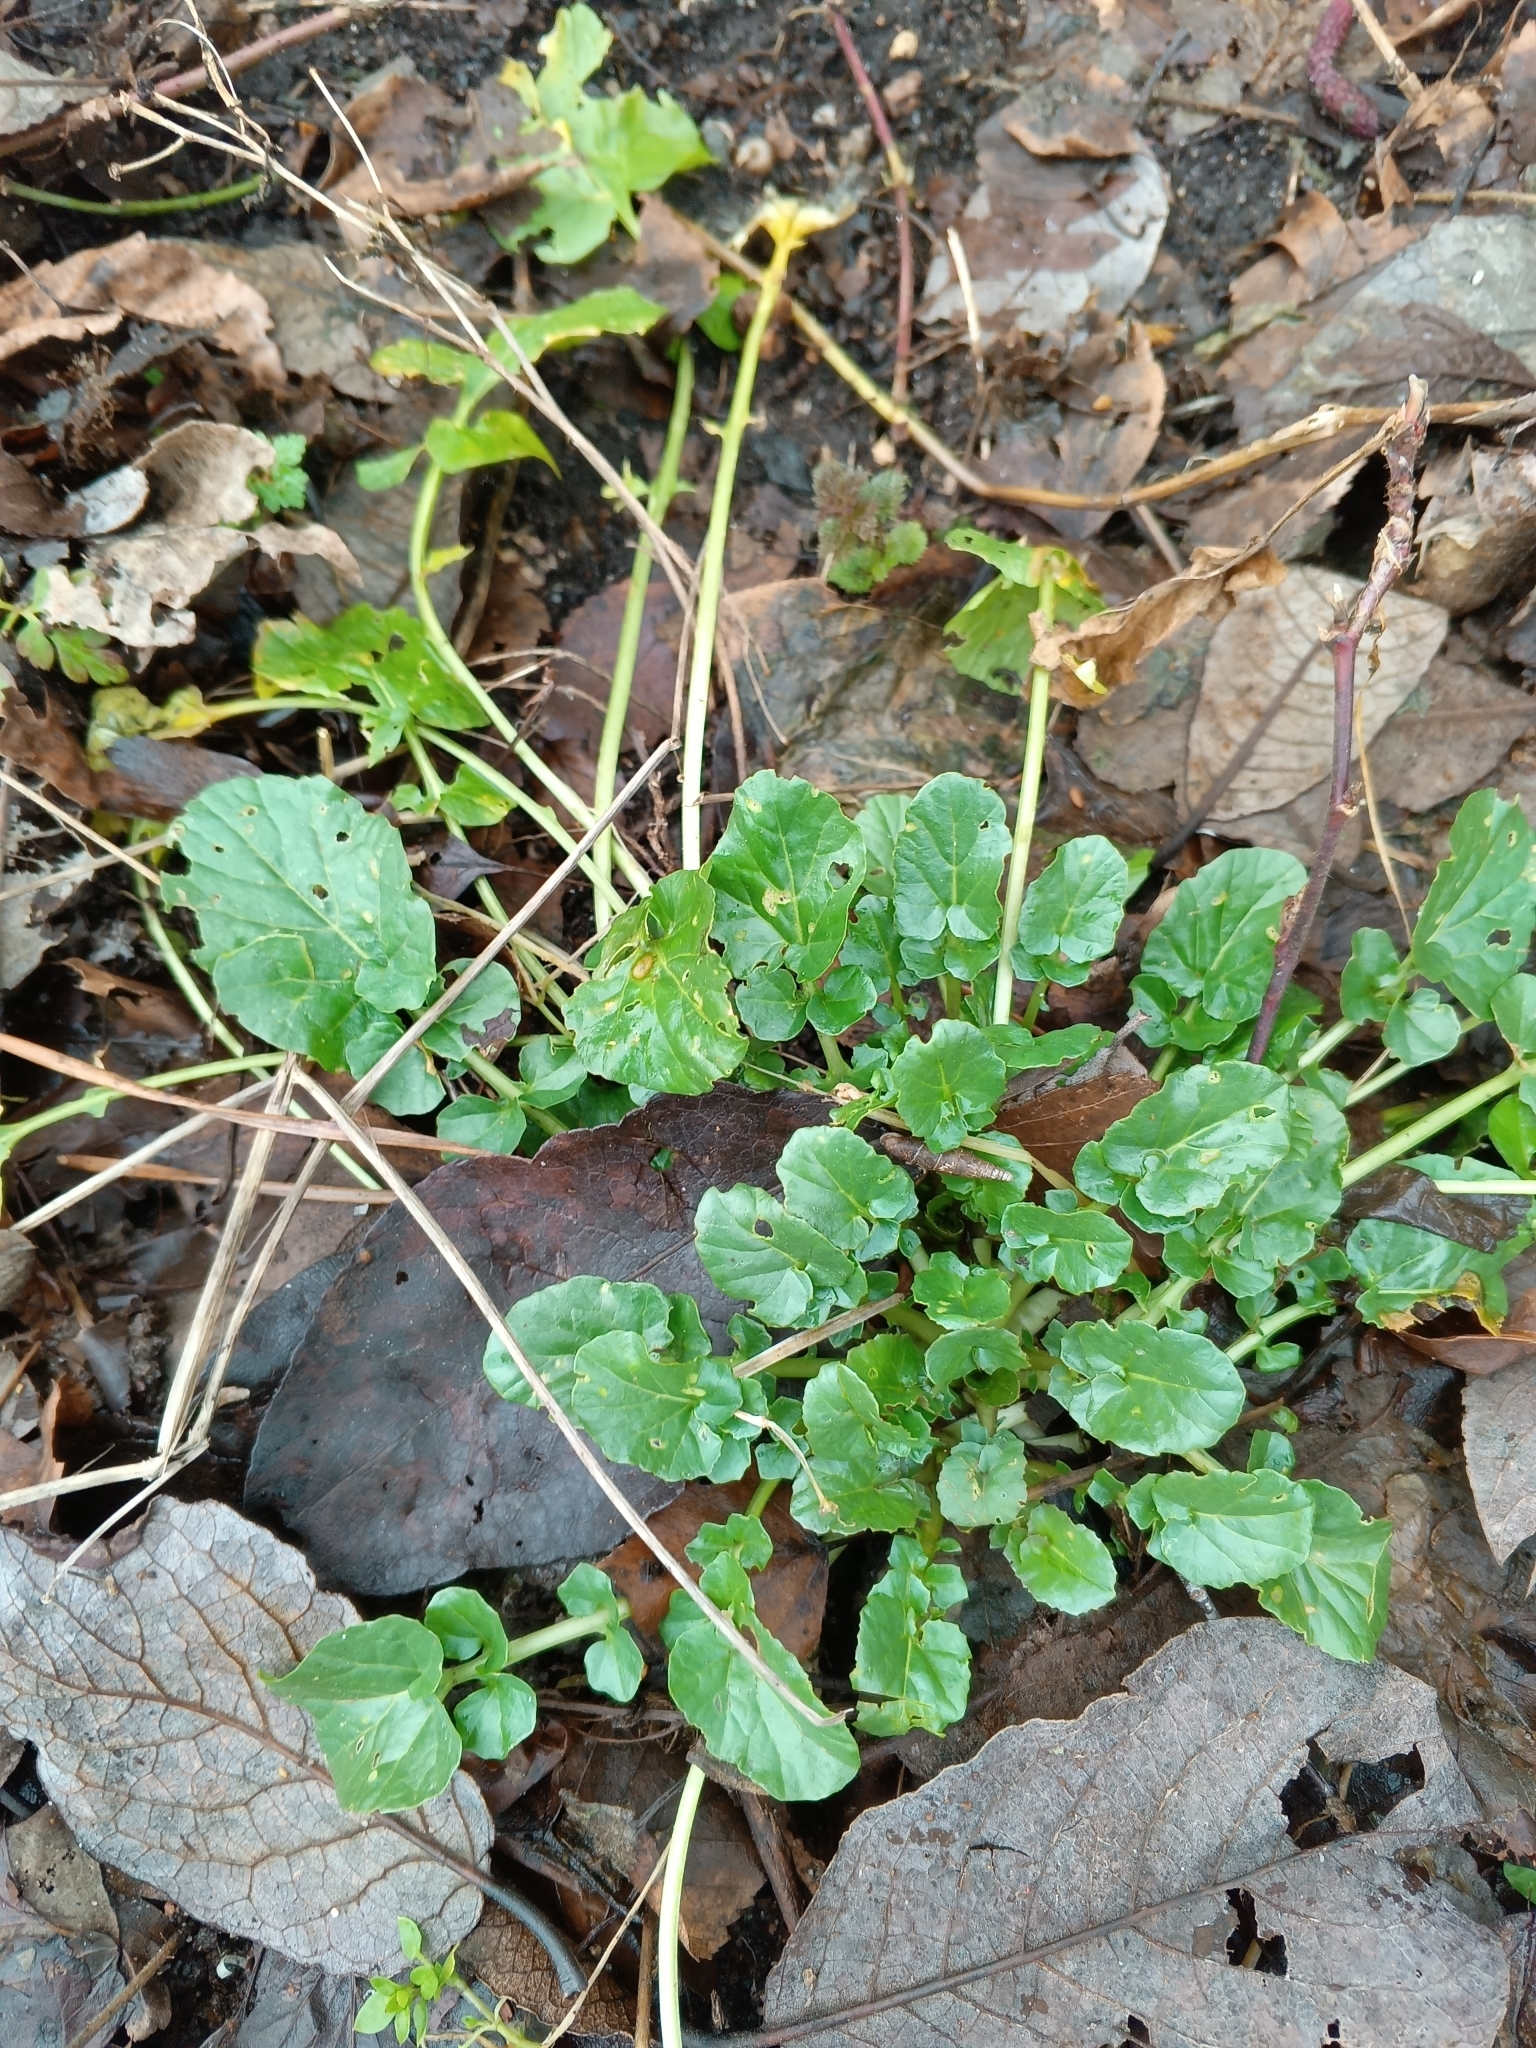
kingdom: Plantae
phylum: Tracheophyta
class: Magnoliopsida
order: Brassicales
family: Brassicaceae
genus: Barbarea
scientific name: Barbarea vulgaris
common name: Cressy-greens
